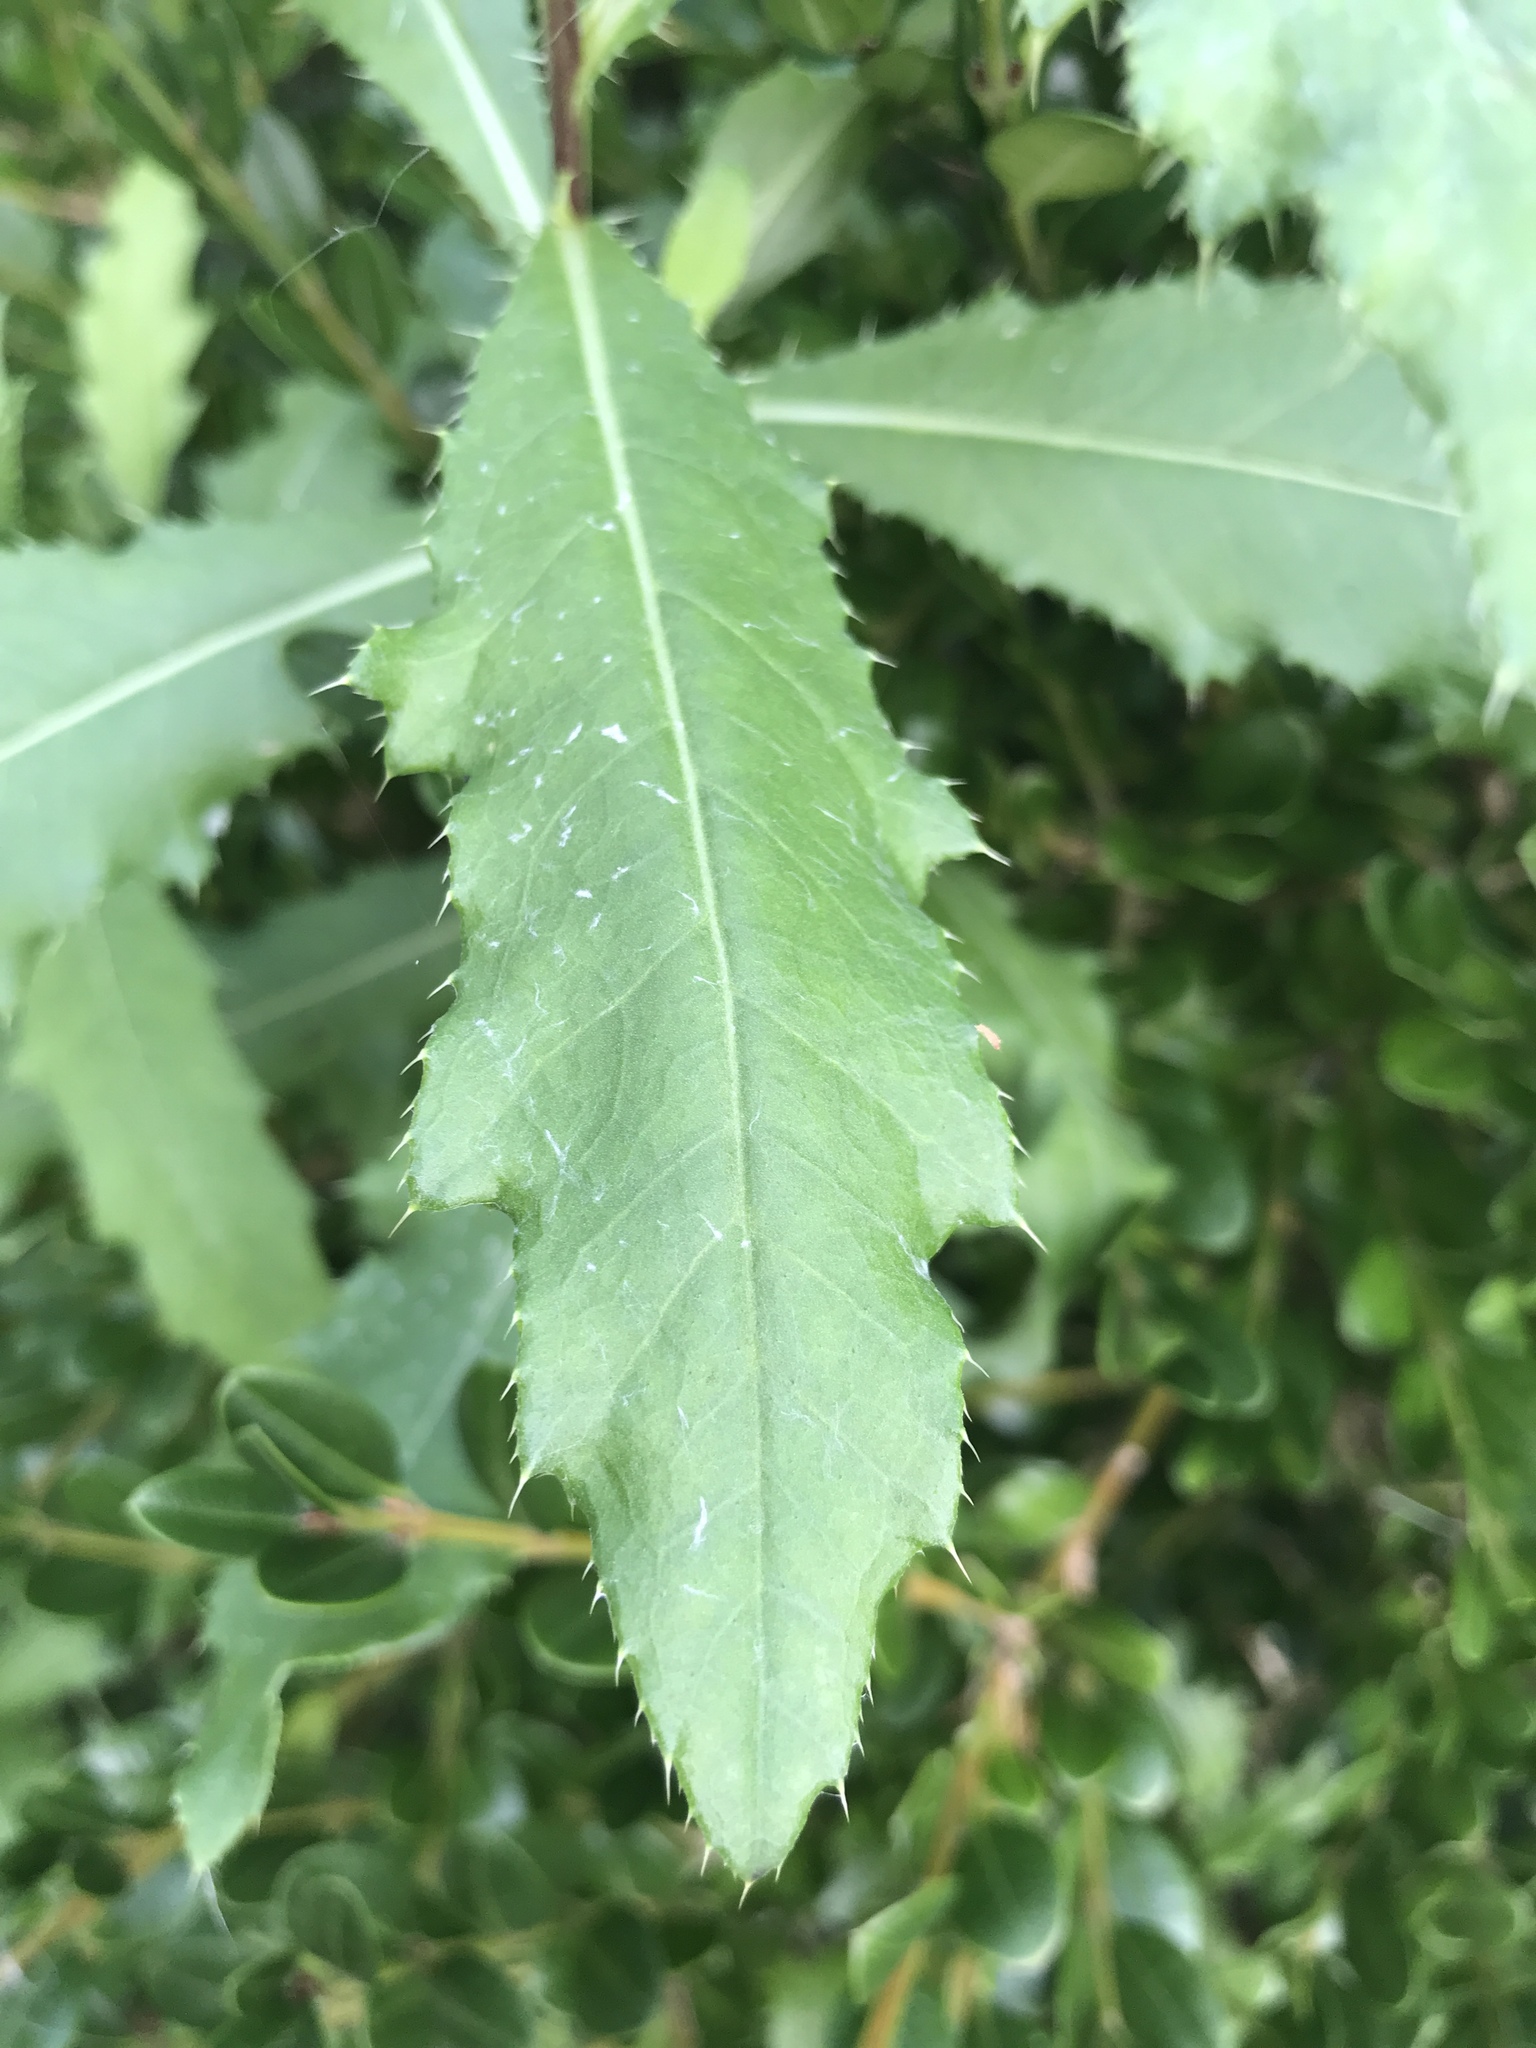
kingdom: Plantae
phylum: Tracheophyta
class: Magnoliopsida
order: Asterales
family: Asteraceae
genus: Cirsium
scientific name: Cirsium arvense
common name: Creeping thistle
